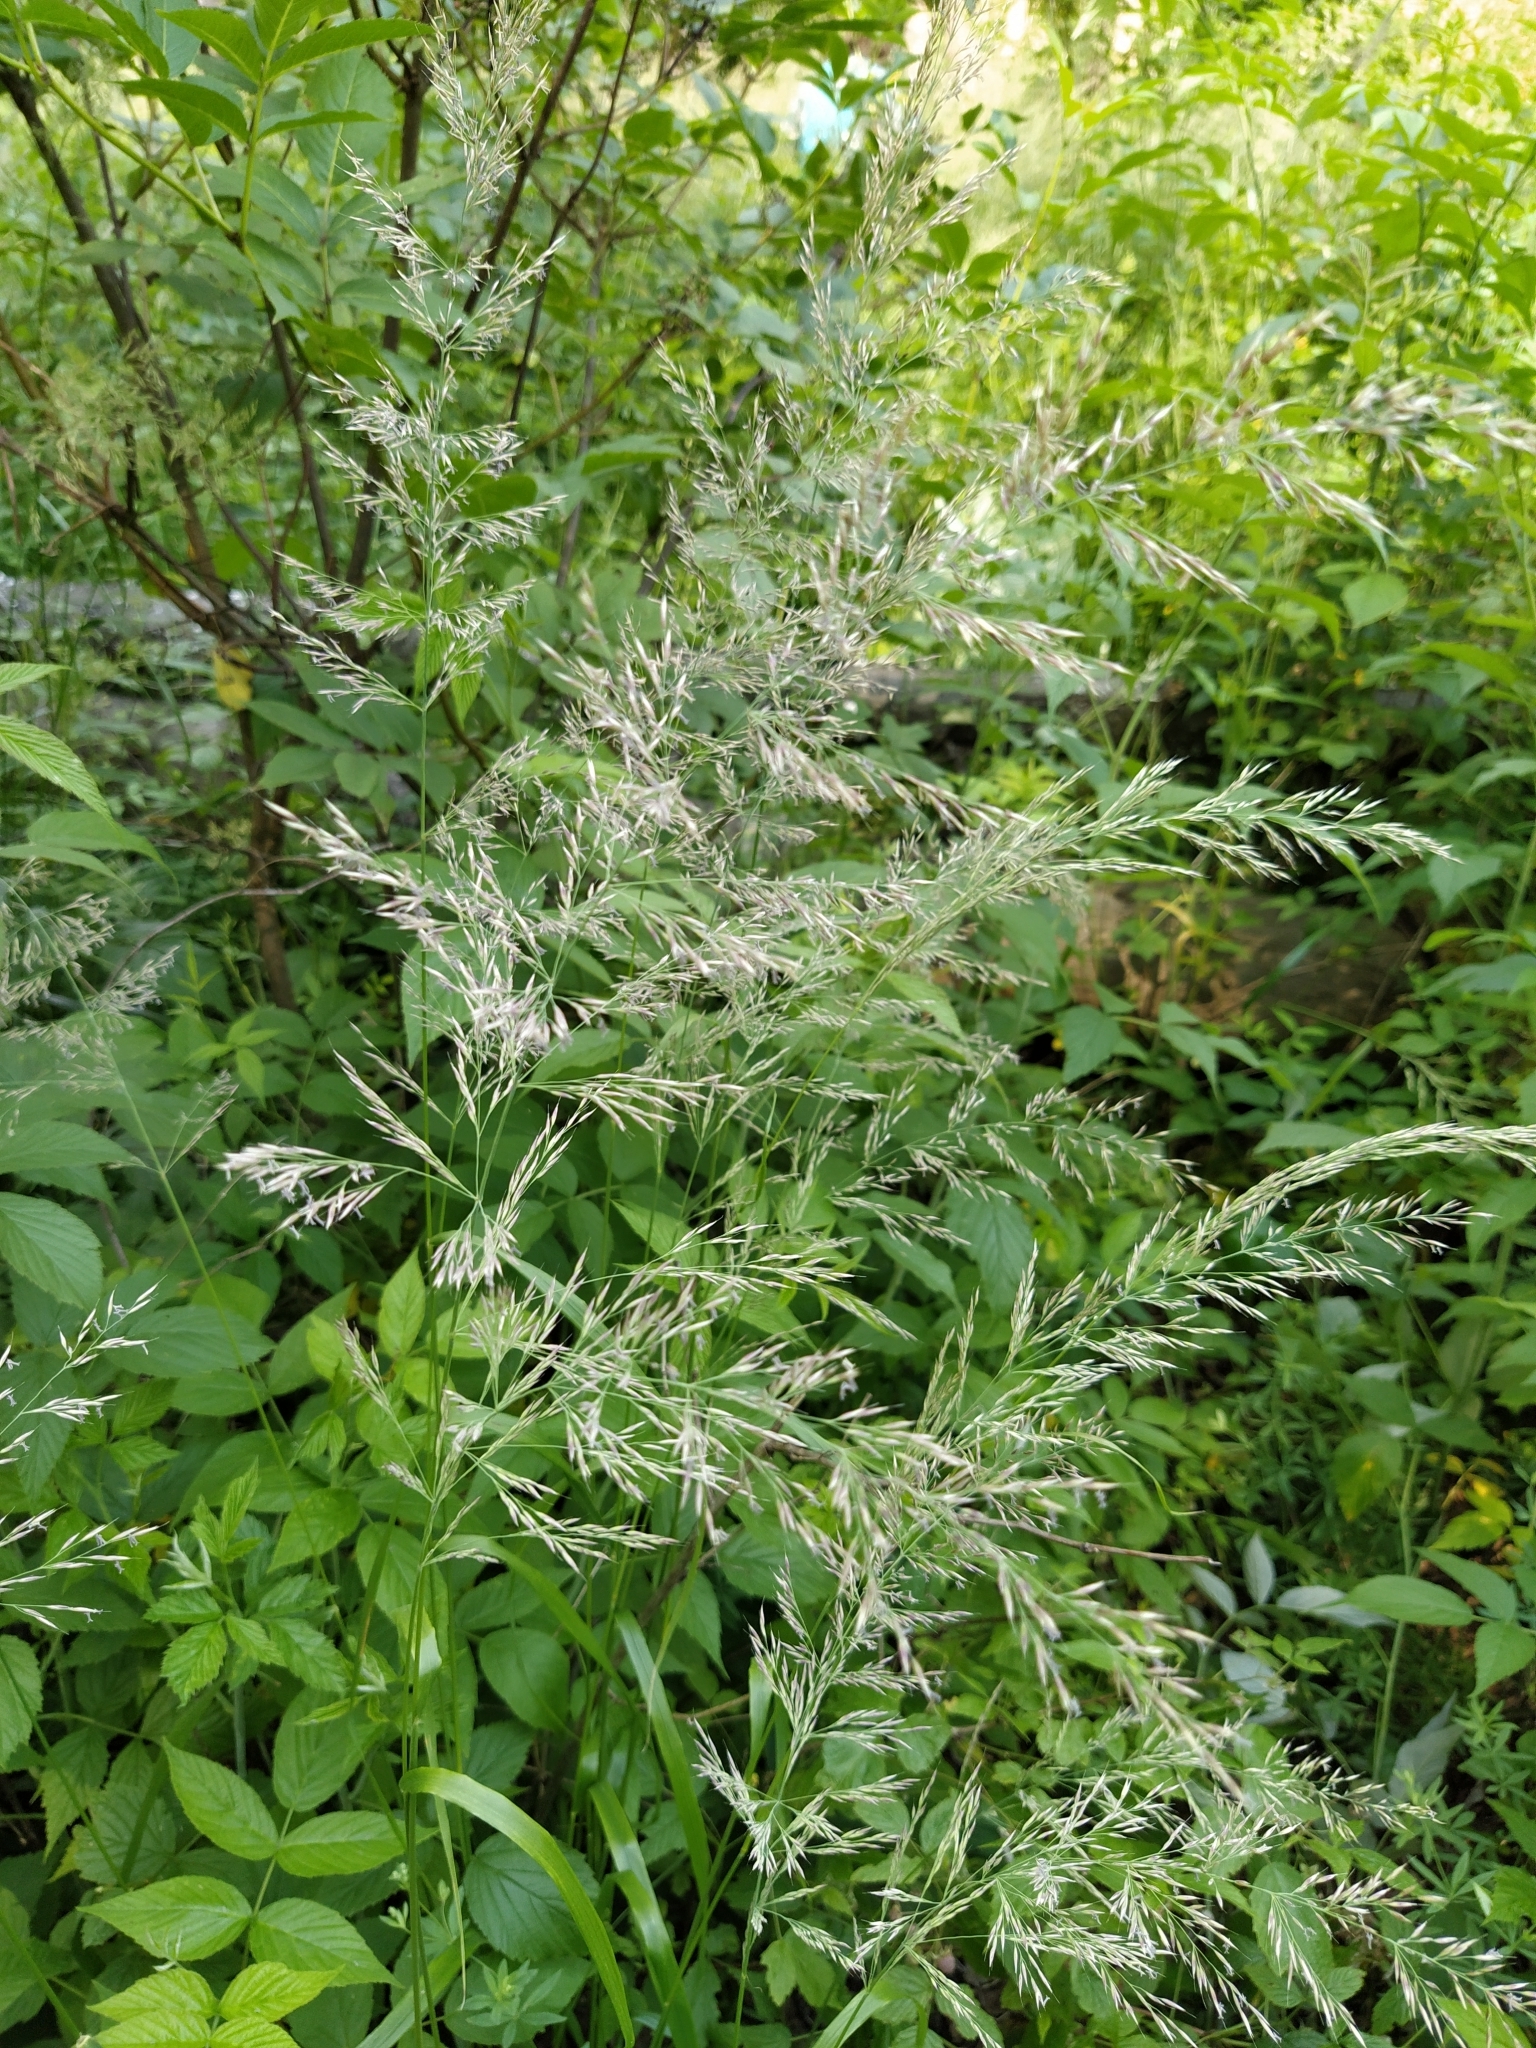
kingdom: Plantae
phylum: Tracheophyta
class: Liliopsida
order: Poales
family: Poaceae
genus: Calamagrostis
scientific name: Calamagrostis arundinacea
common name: Metskastik
